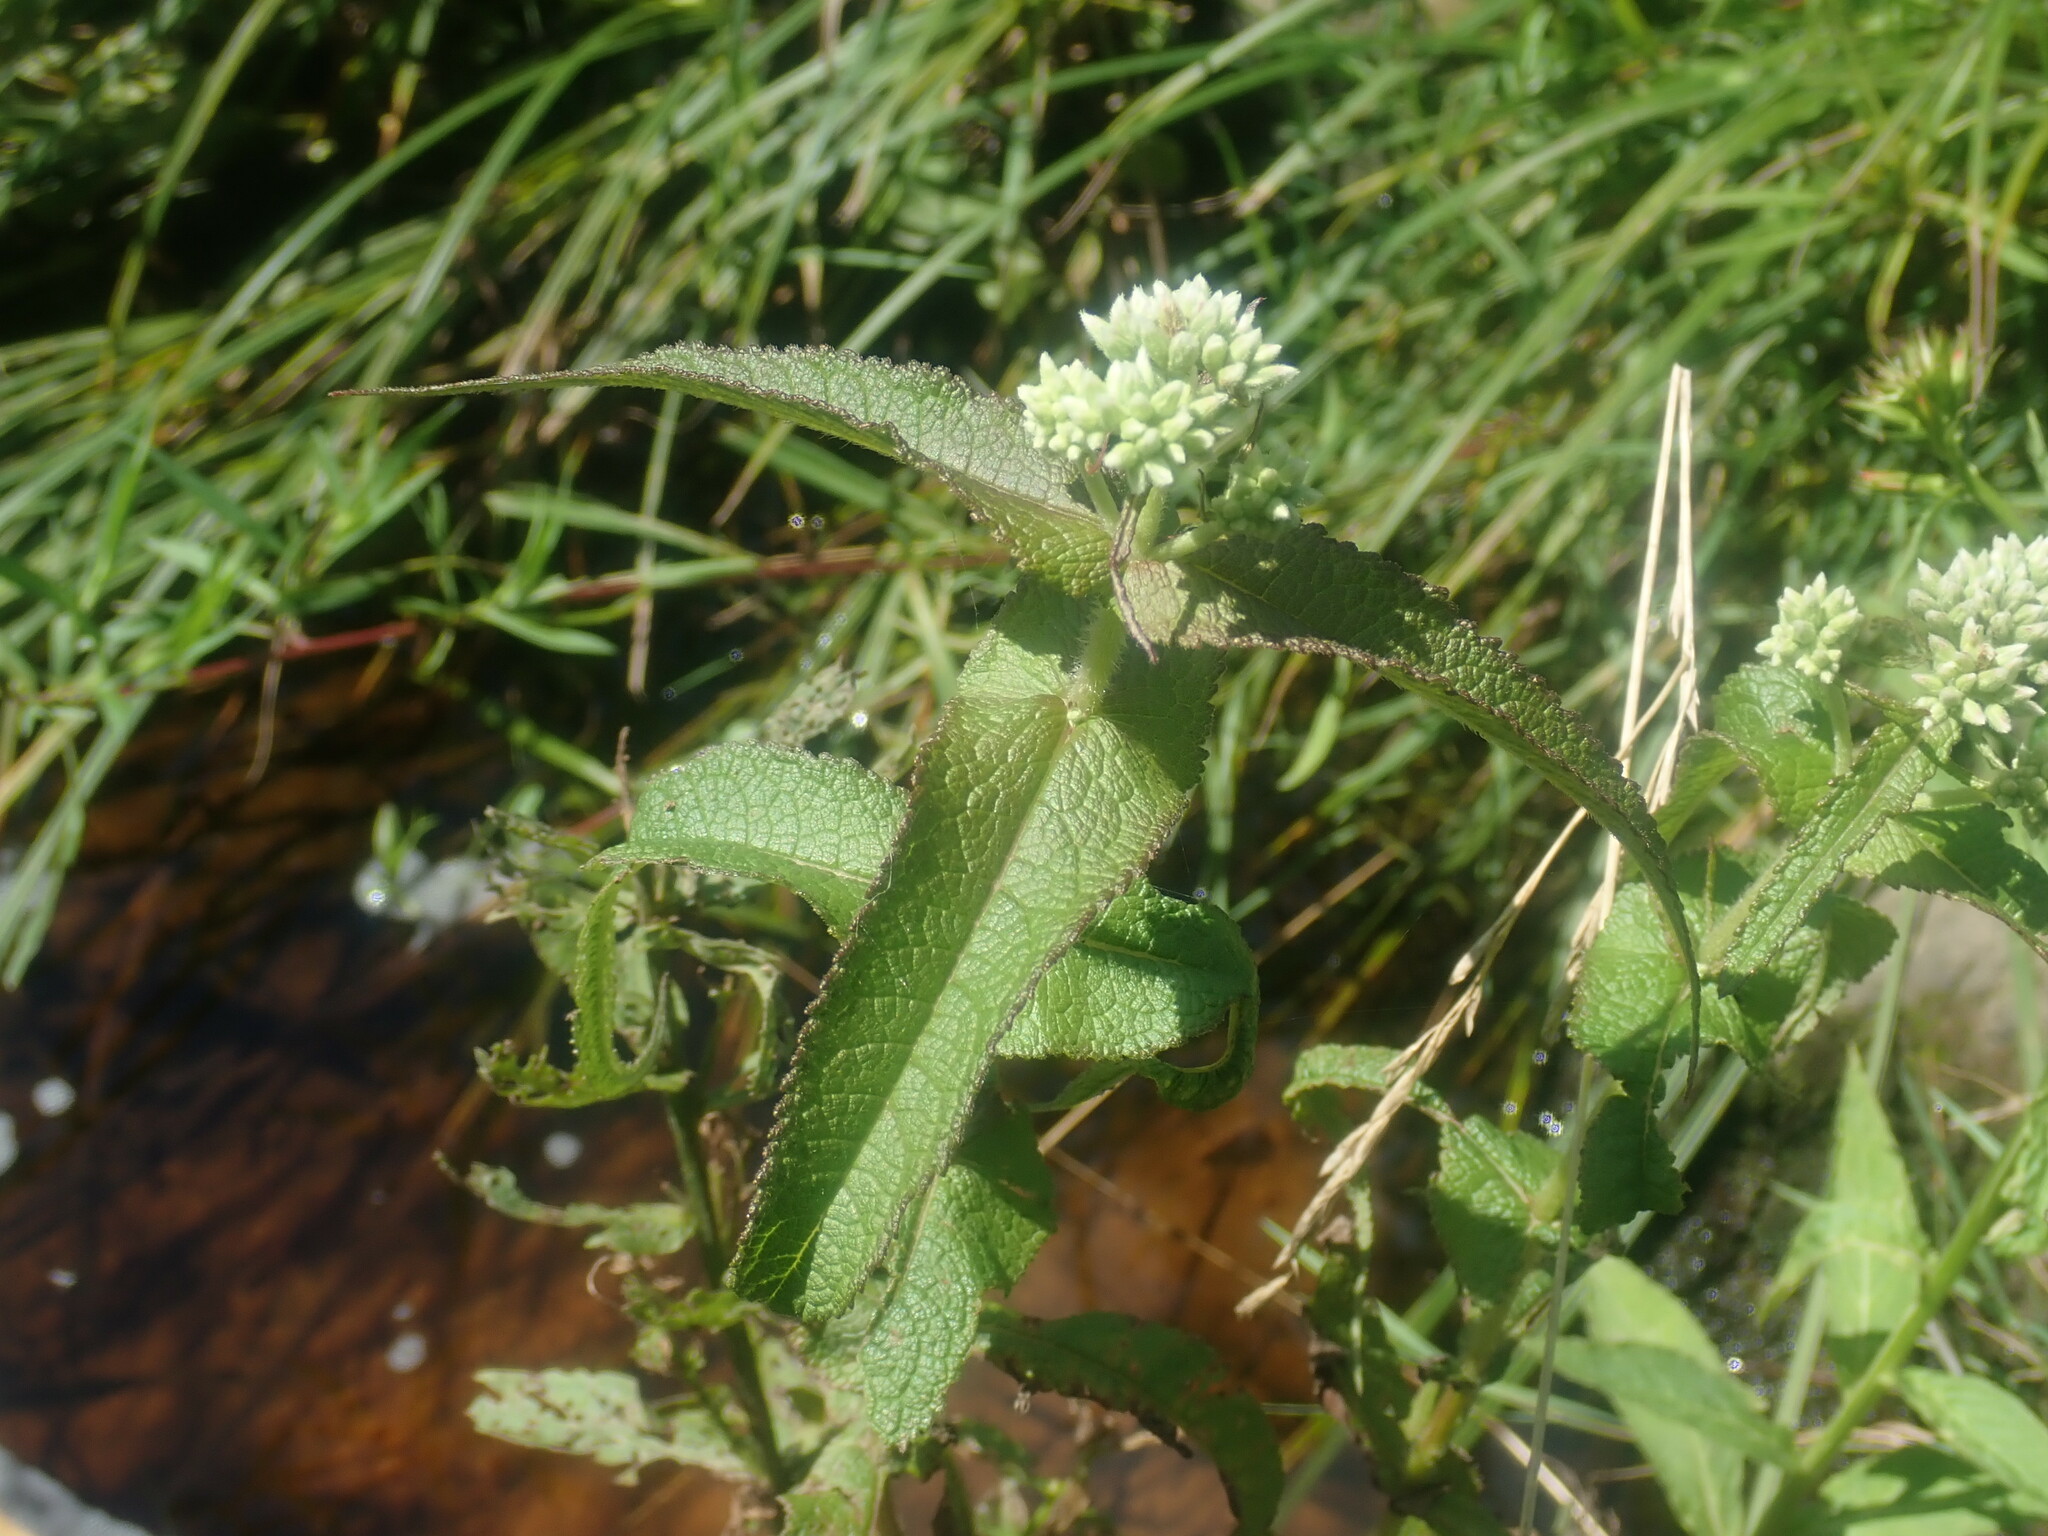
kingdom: Plantae
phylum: Tracheophyta
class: Magnoliopsida
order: Asterales
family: Asteraceae
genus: Eupatorium
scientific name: Eupatorium perfoliatum
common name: Boneset
